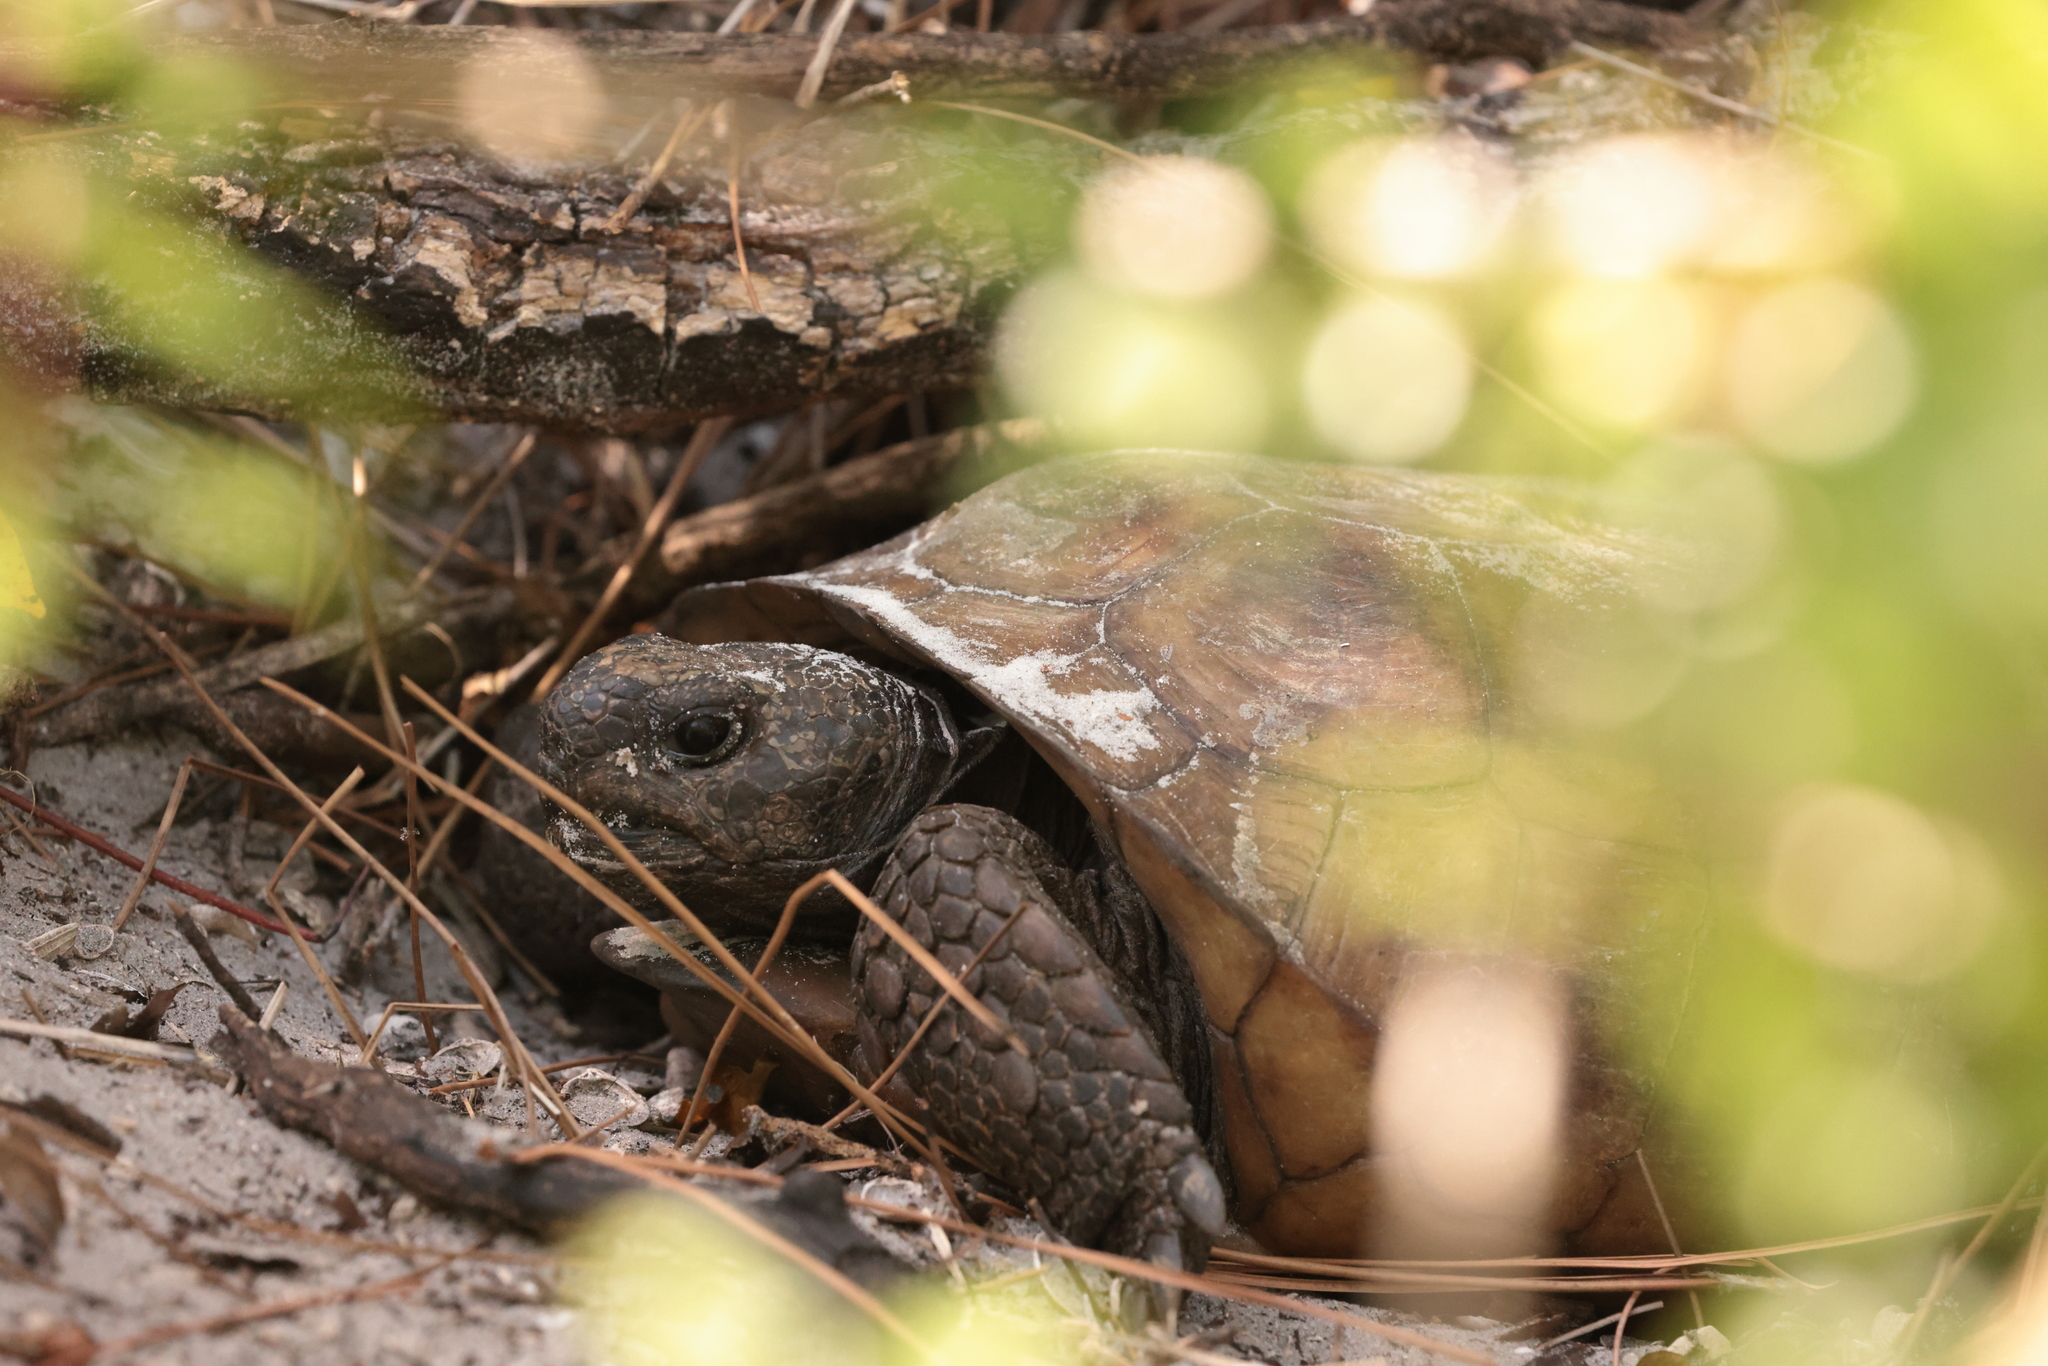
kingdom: Animalia
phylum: Chordata
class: Testudines
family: Testudinidae
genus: Gopherus
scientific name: Gopherus polyphemus
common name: Florida gopher tortoise
